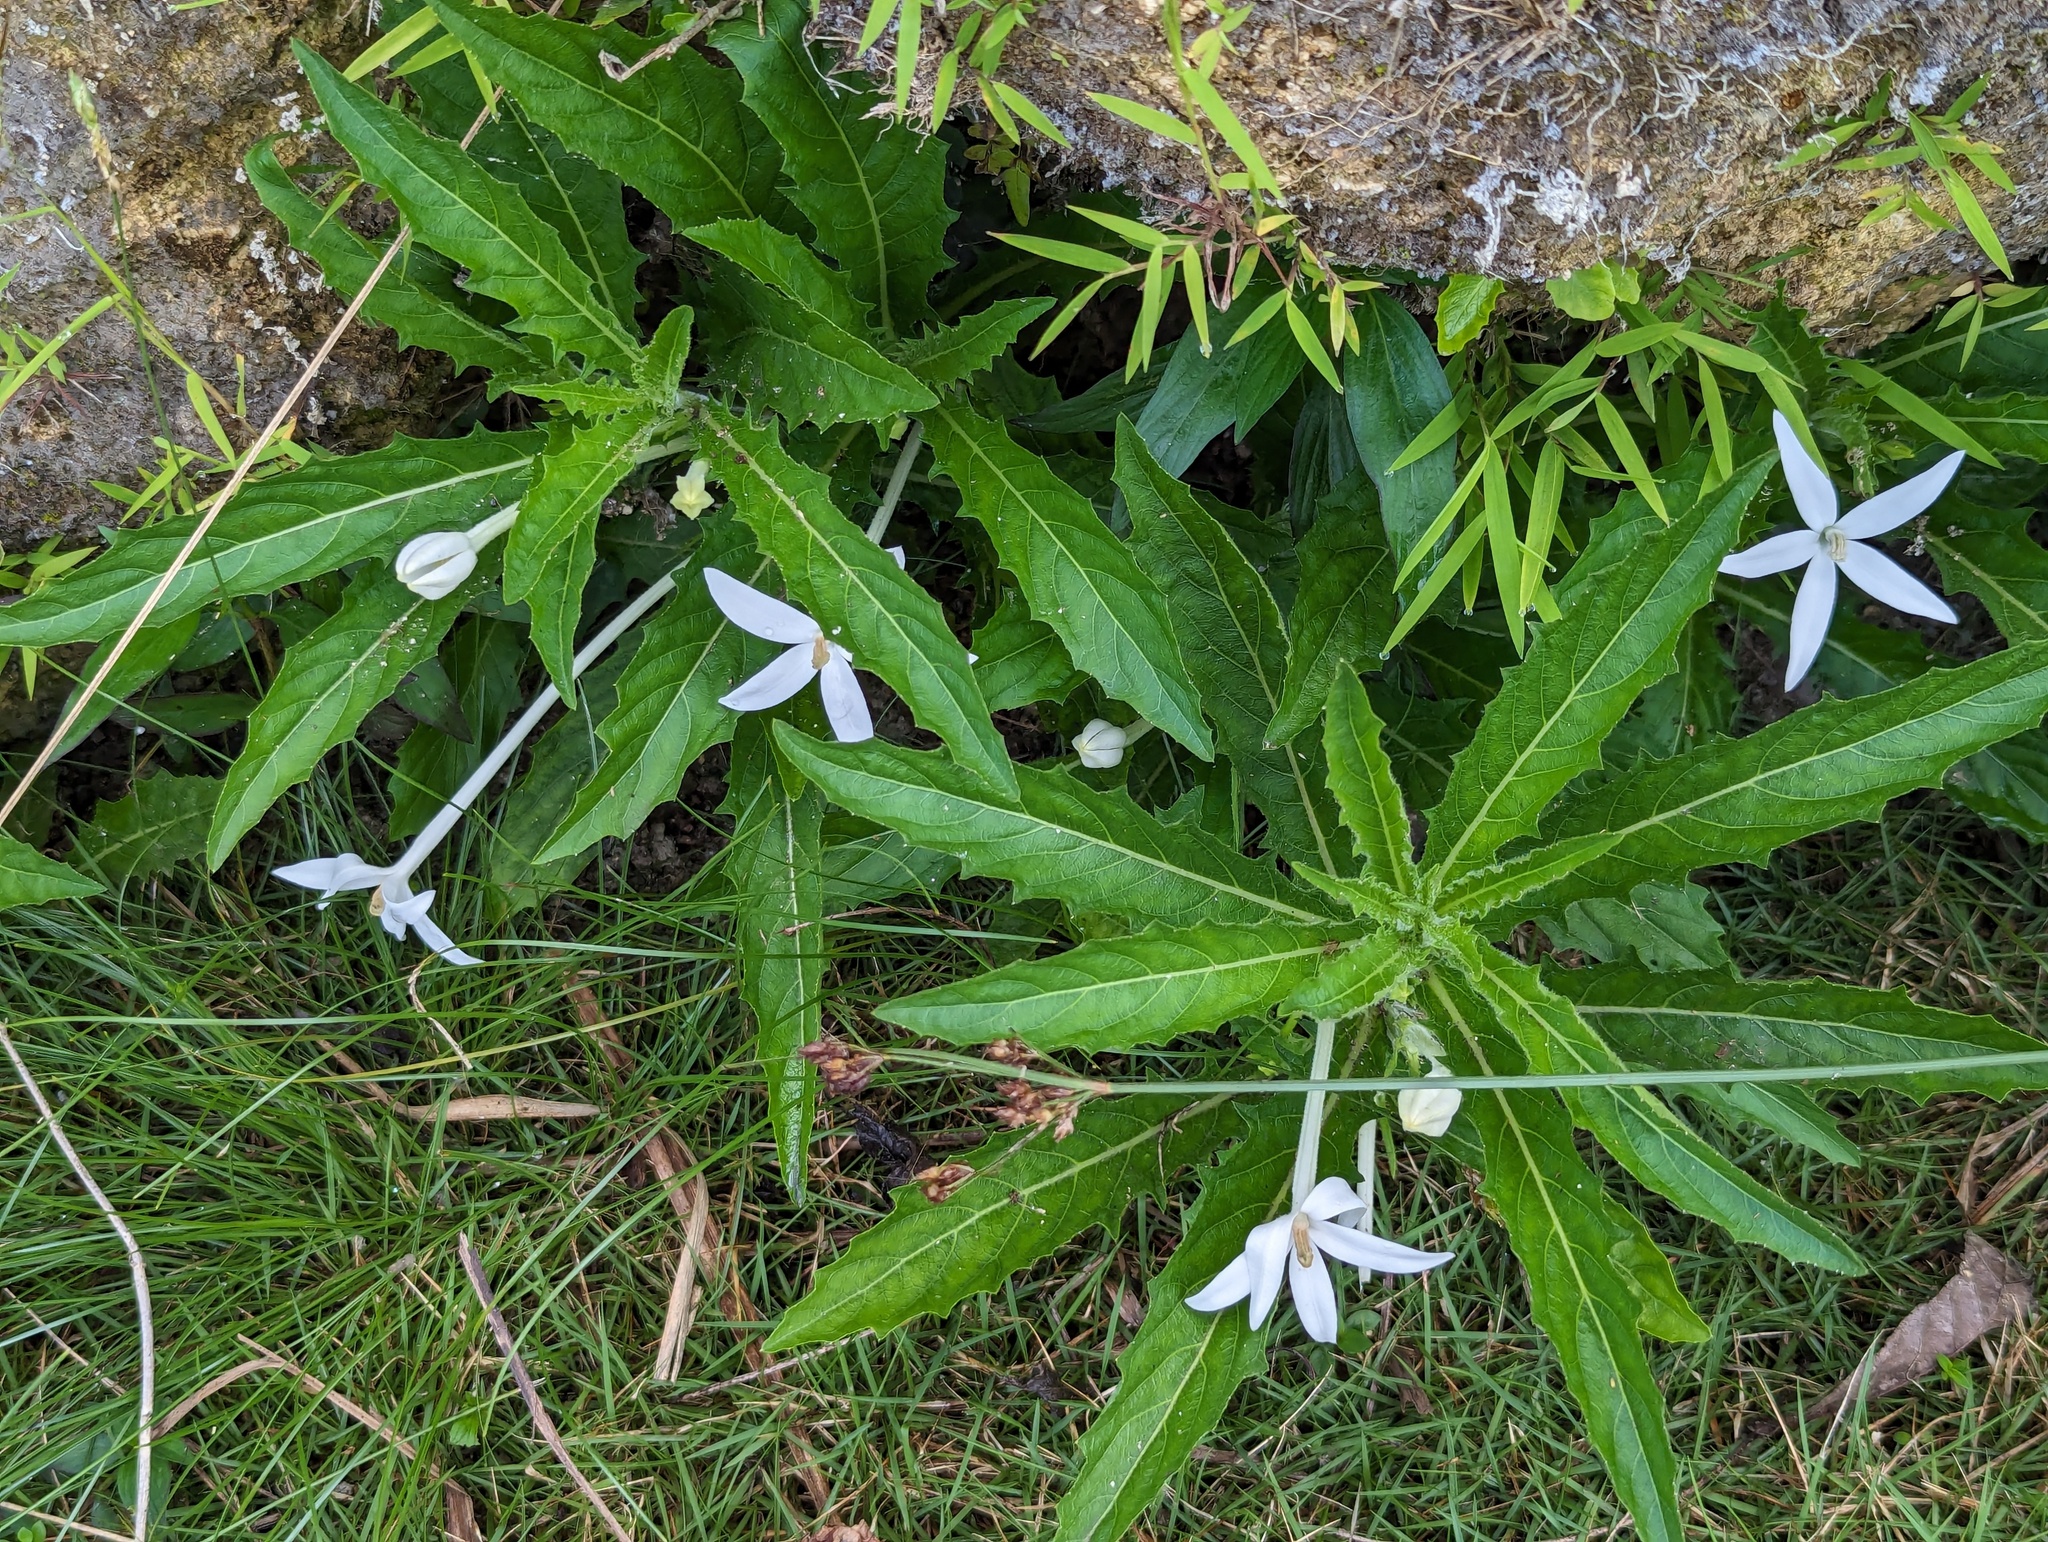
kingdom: Plantae
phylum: Tracheophyta
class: Magnoliopsida
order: Asterales
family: Campanulaceae
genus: Hippobroma
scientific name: Hippobroma longiflora
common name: Madamfate
